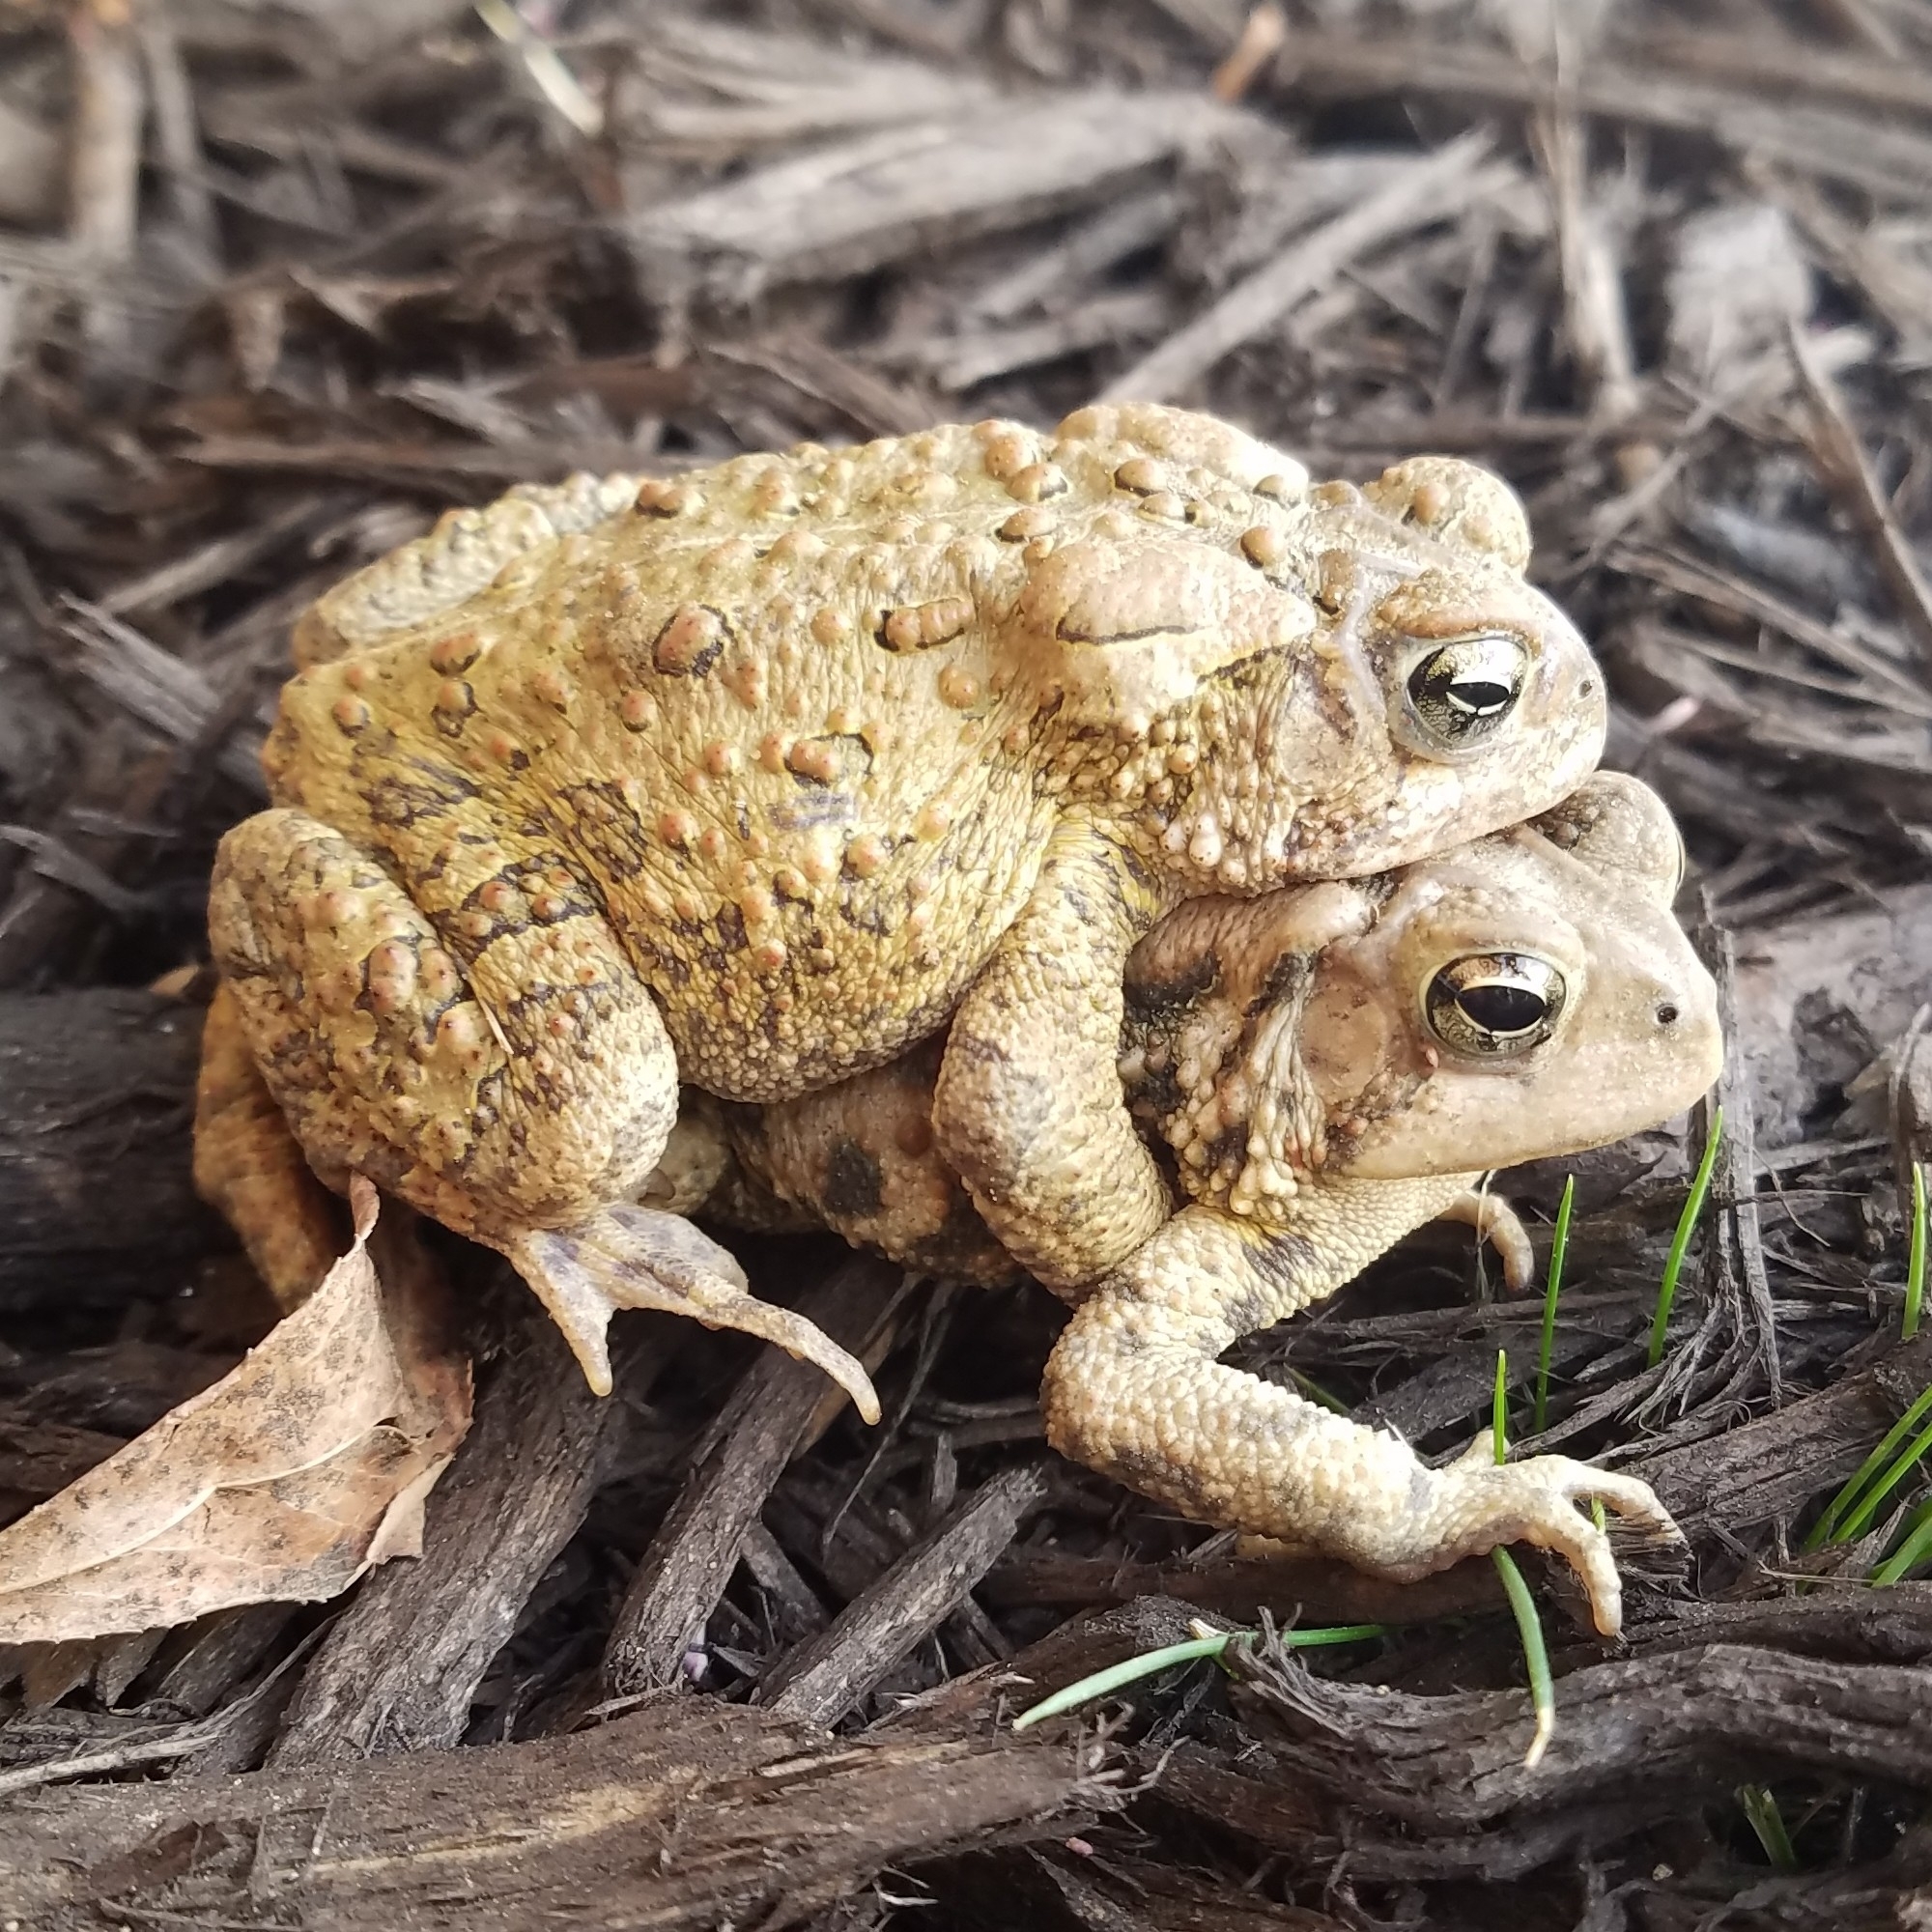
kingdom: Animalia
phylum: Chordata
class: Amphibia
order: Anura
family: Bufonidae
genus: Anaxyrus
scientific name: Anaxyrus americanus
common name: American toad
